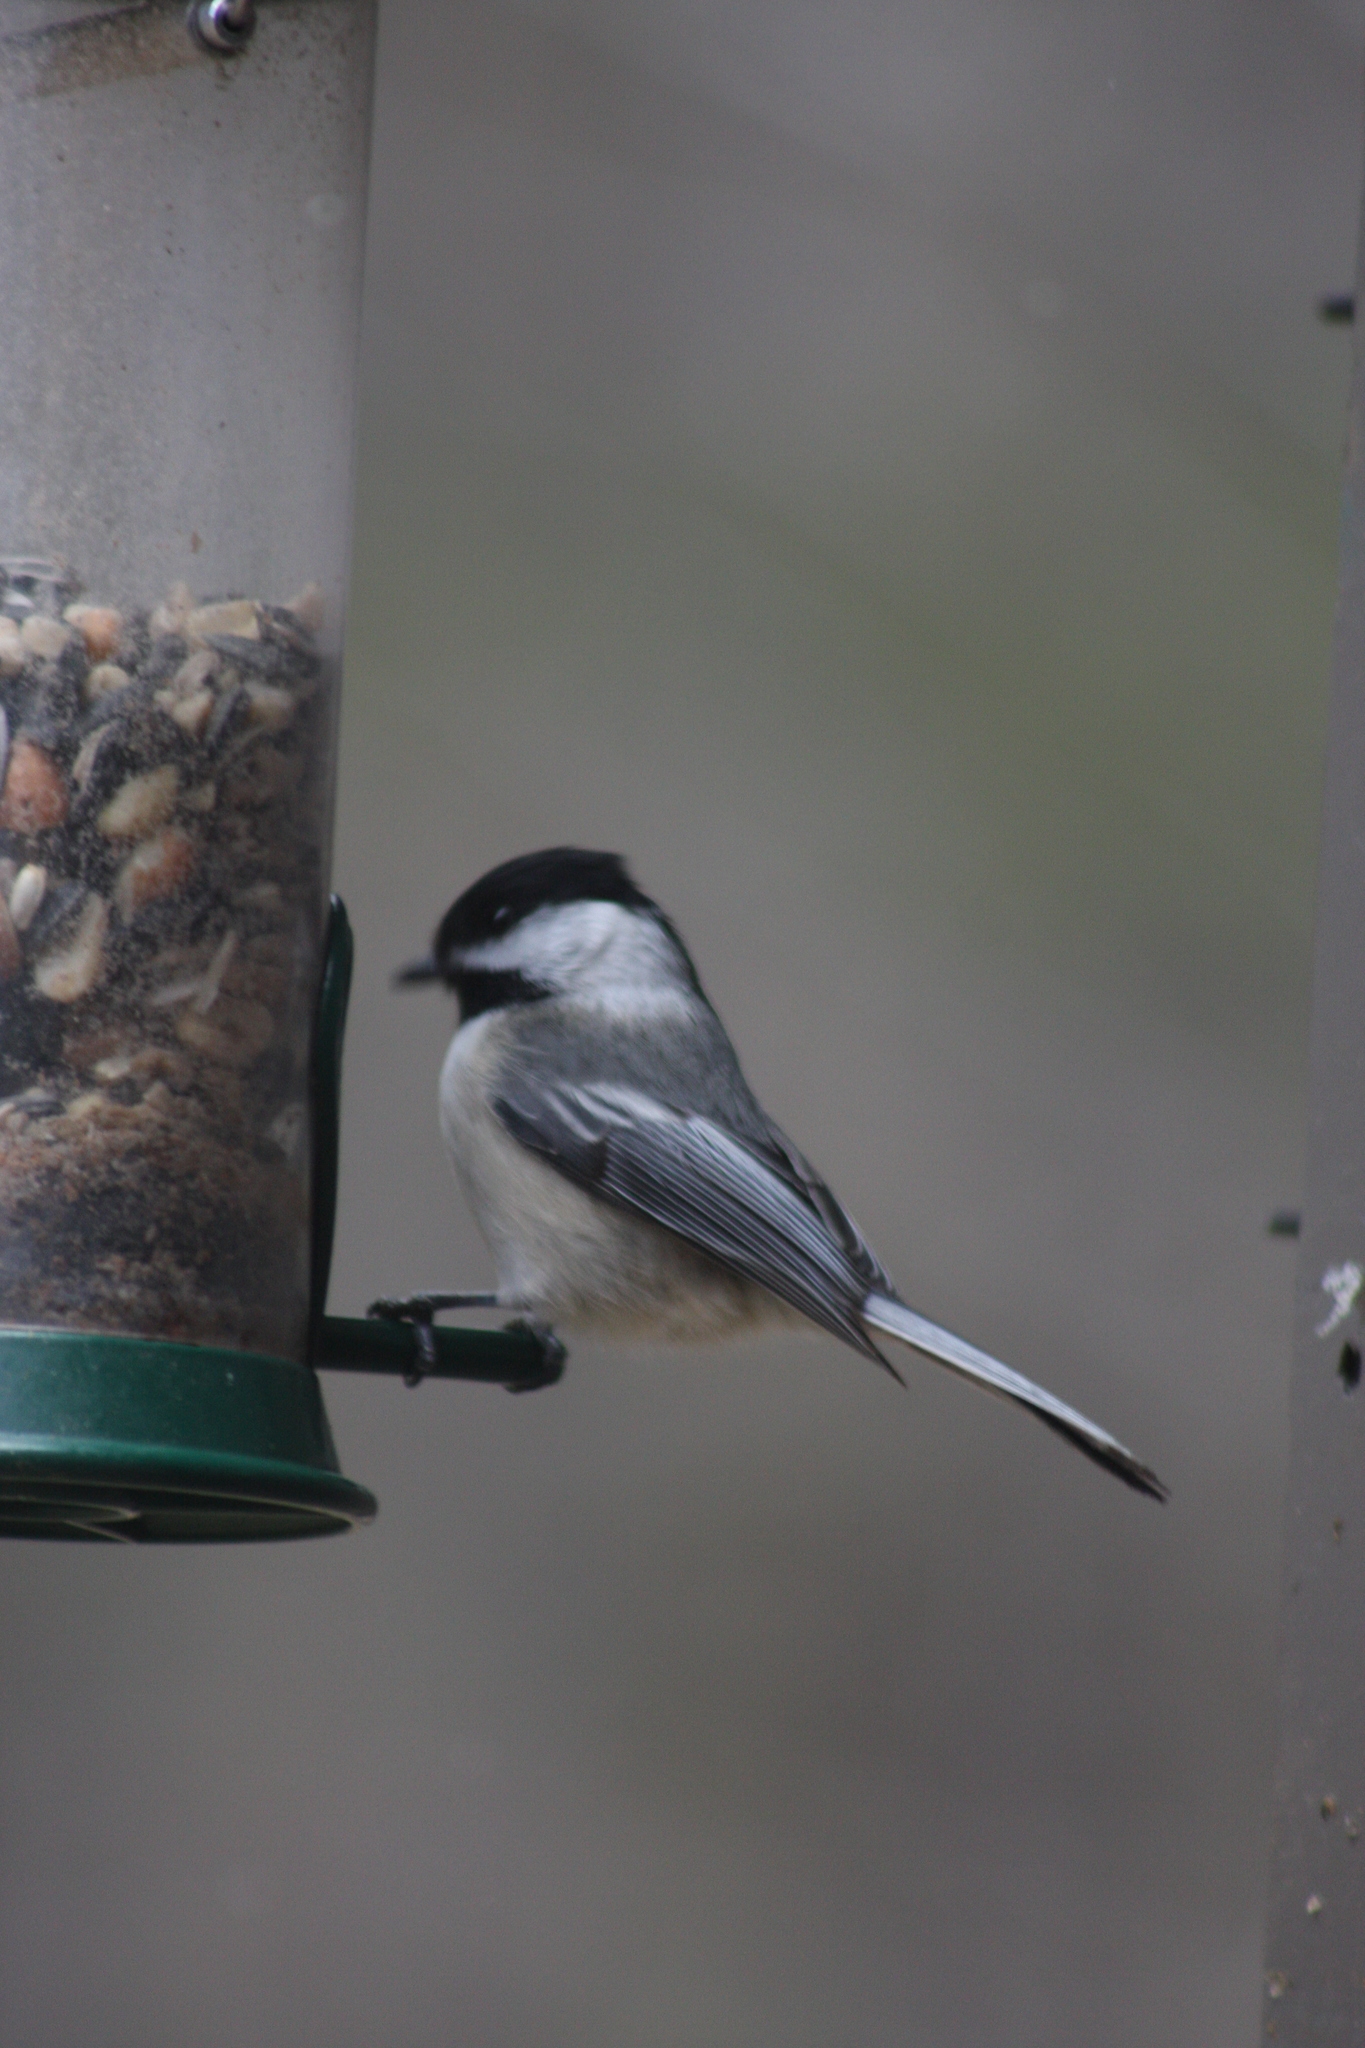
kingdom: Animalia
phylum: Chordata
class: Aves
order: Passeriformes
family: Paridae
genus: Poecile
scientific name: Poecile atricapillus
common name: Black-capped chickadee
